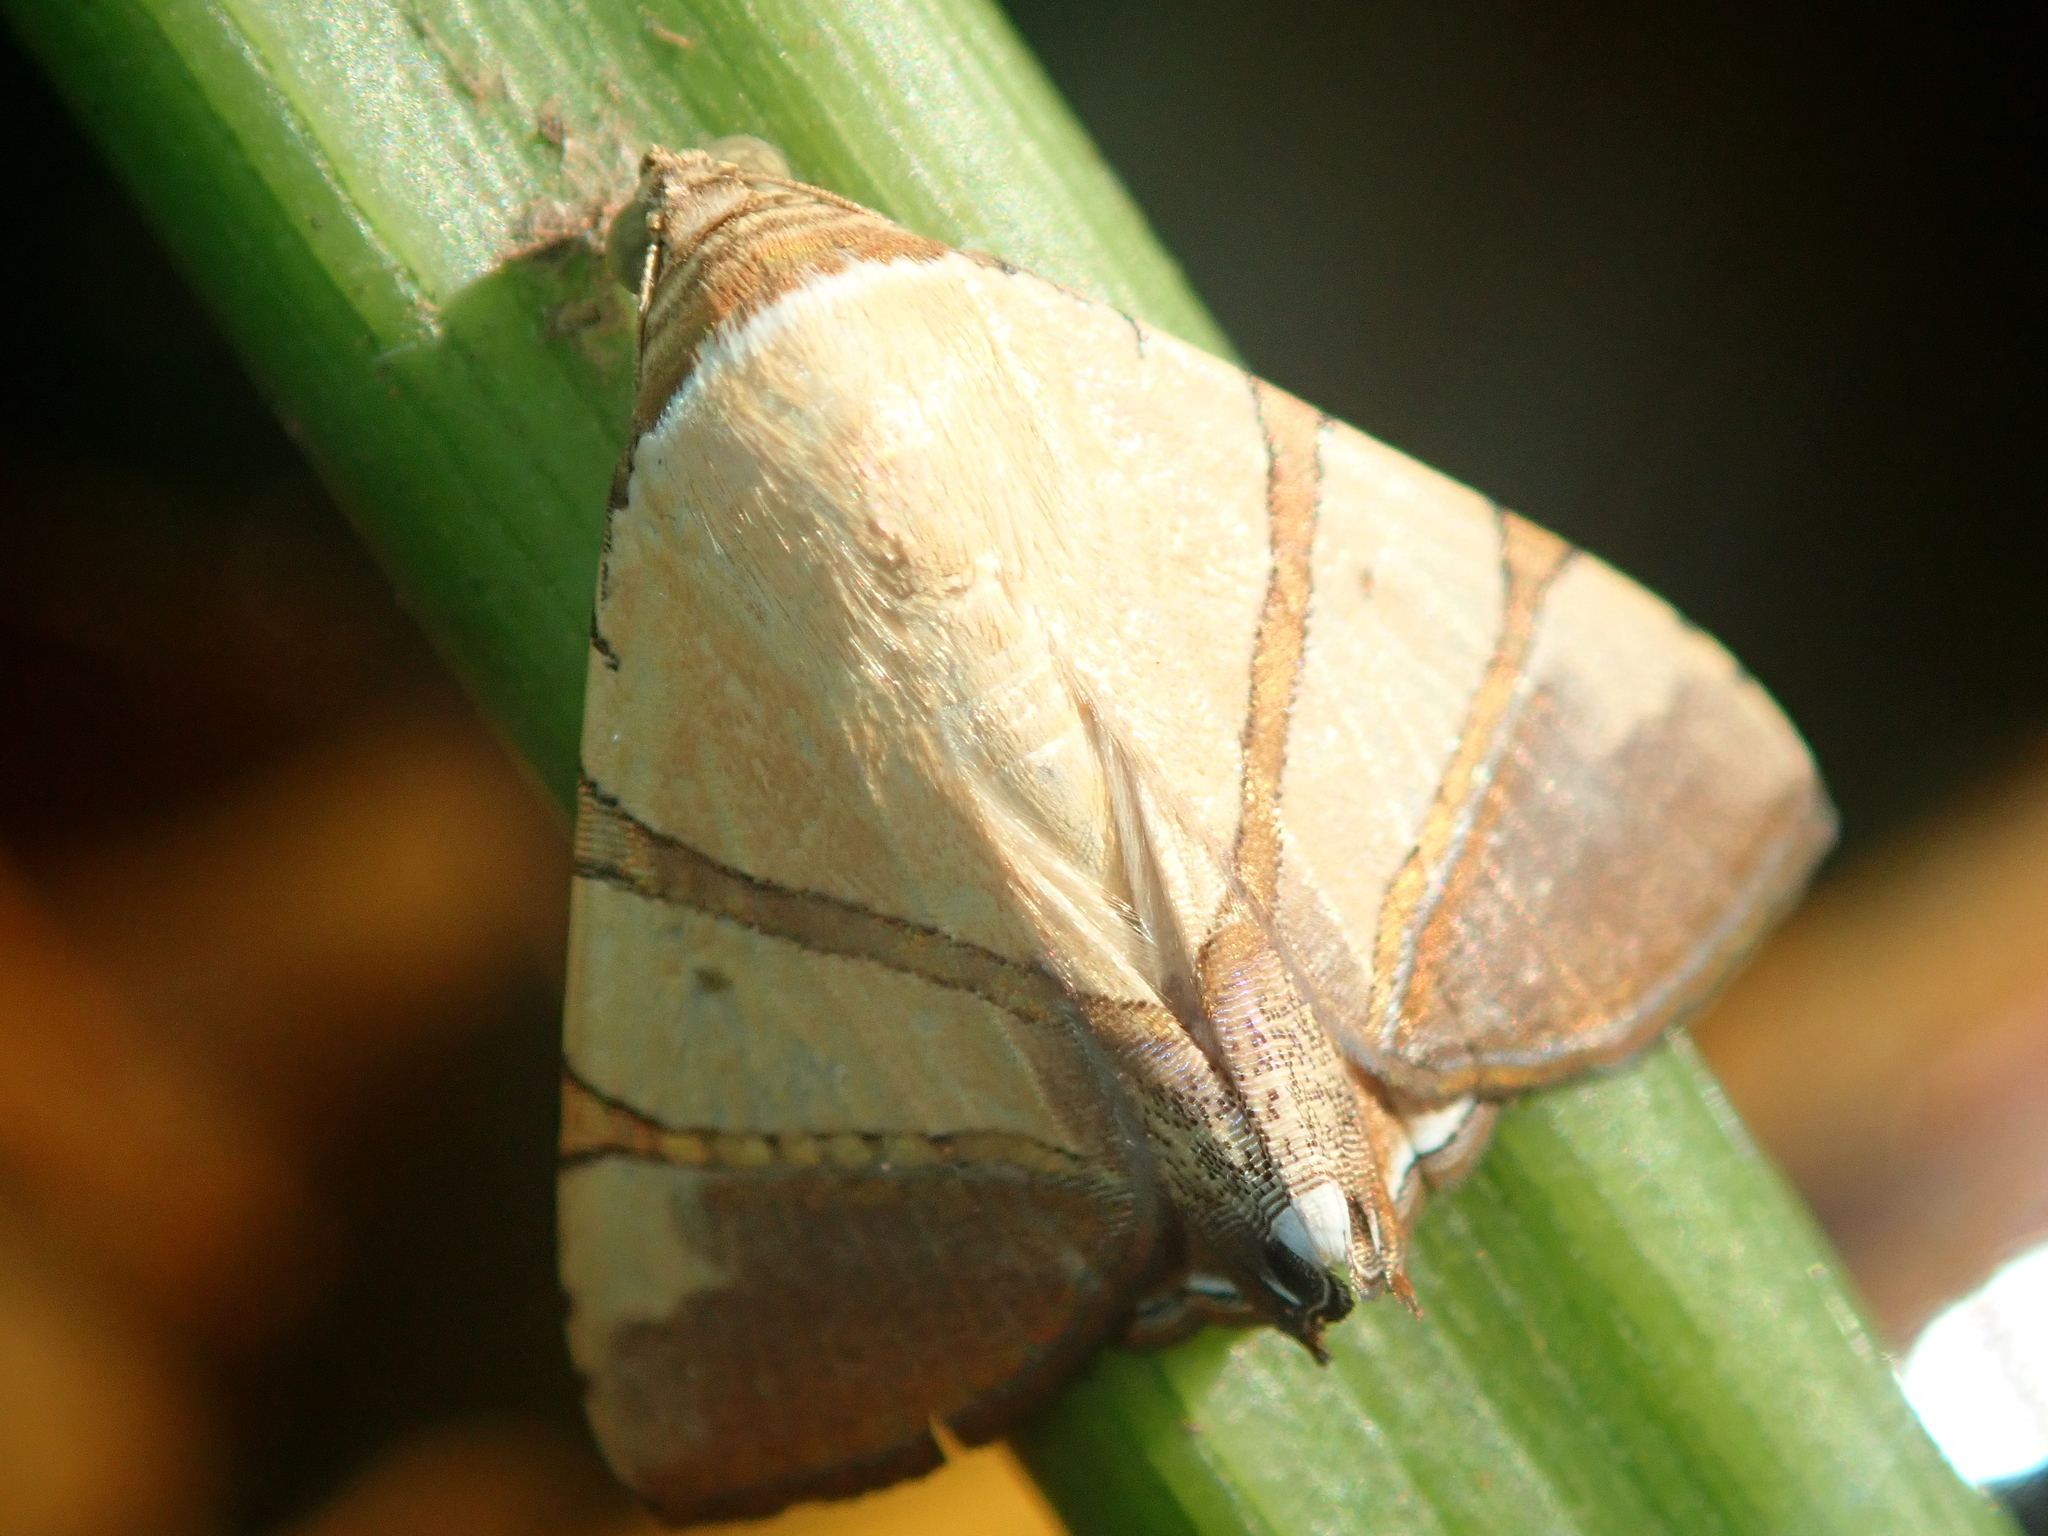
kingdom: Animalia
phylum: Arthropoda
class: Insecta
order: Lepidoptera
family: Erebidae
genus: Eulepidotis
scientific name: Eulepidotis julianata
